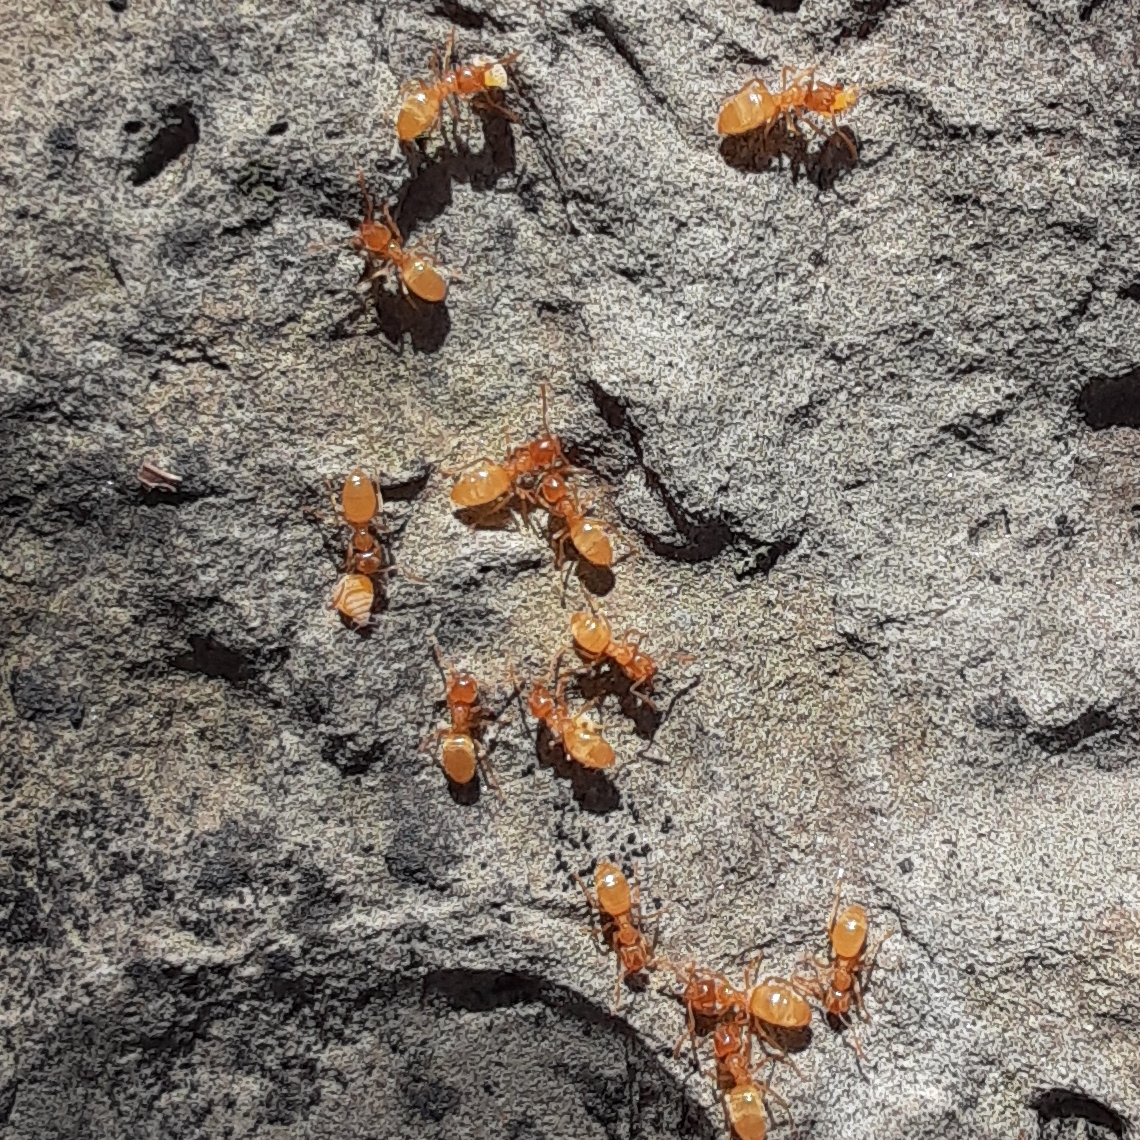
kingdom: Animalia
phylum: Arthropoda
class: Insecta
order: Hymenoptera
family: Formicidae
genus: Brachymyrmex
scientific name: Brachymyrmex depilis
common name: Hairless rover ant
